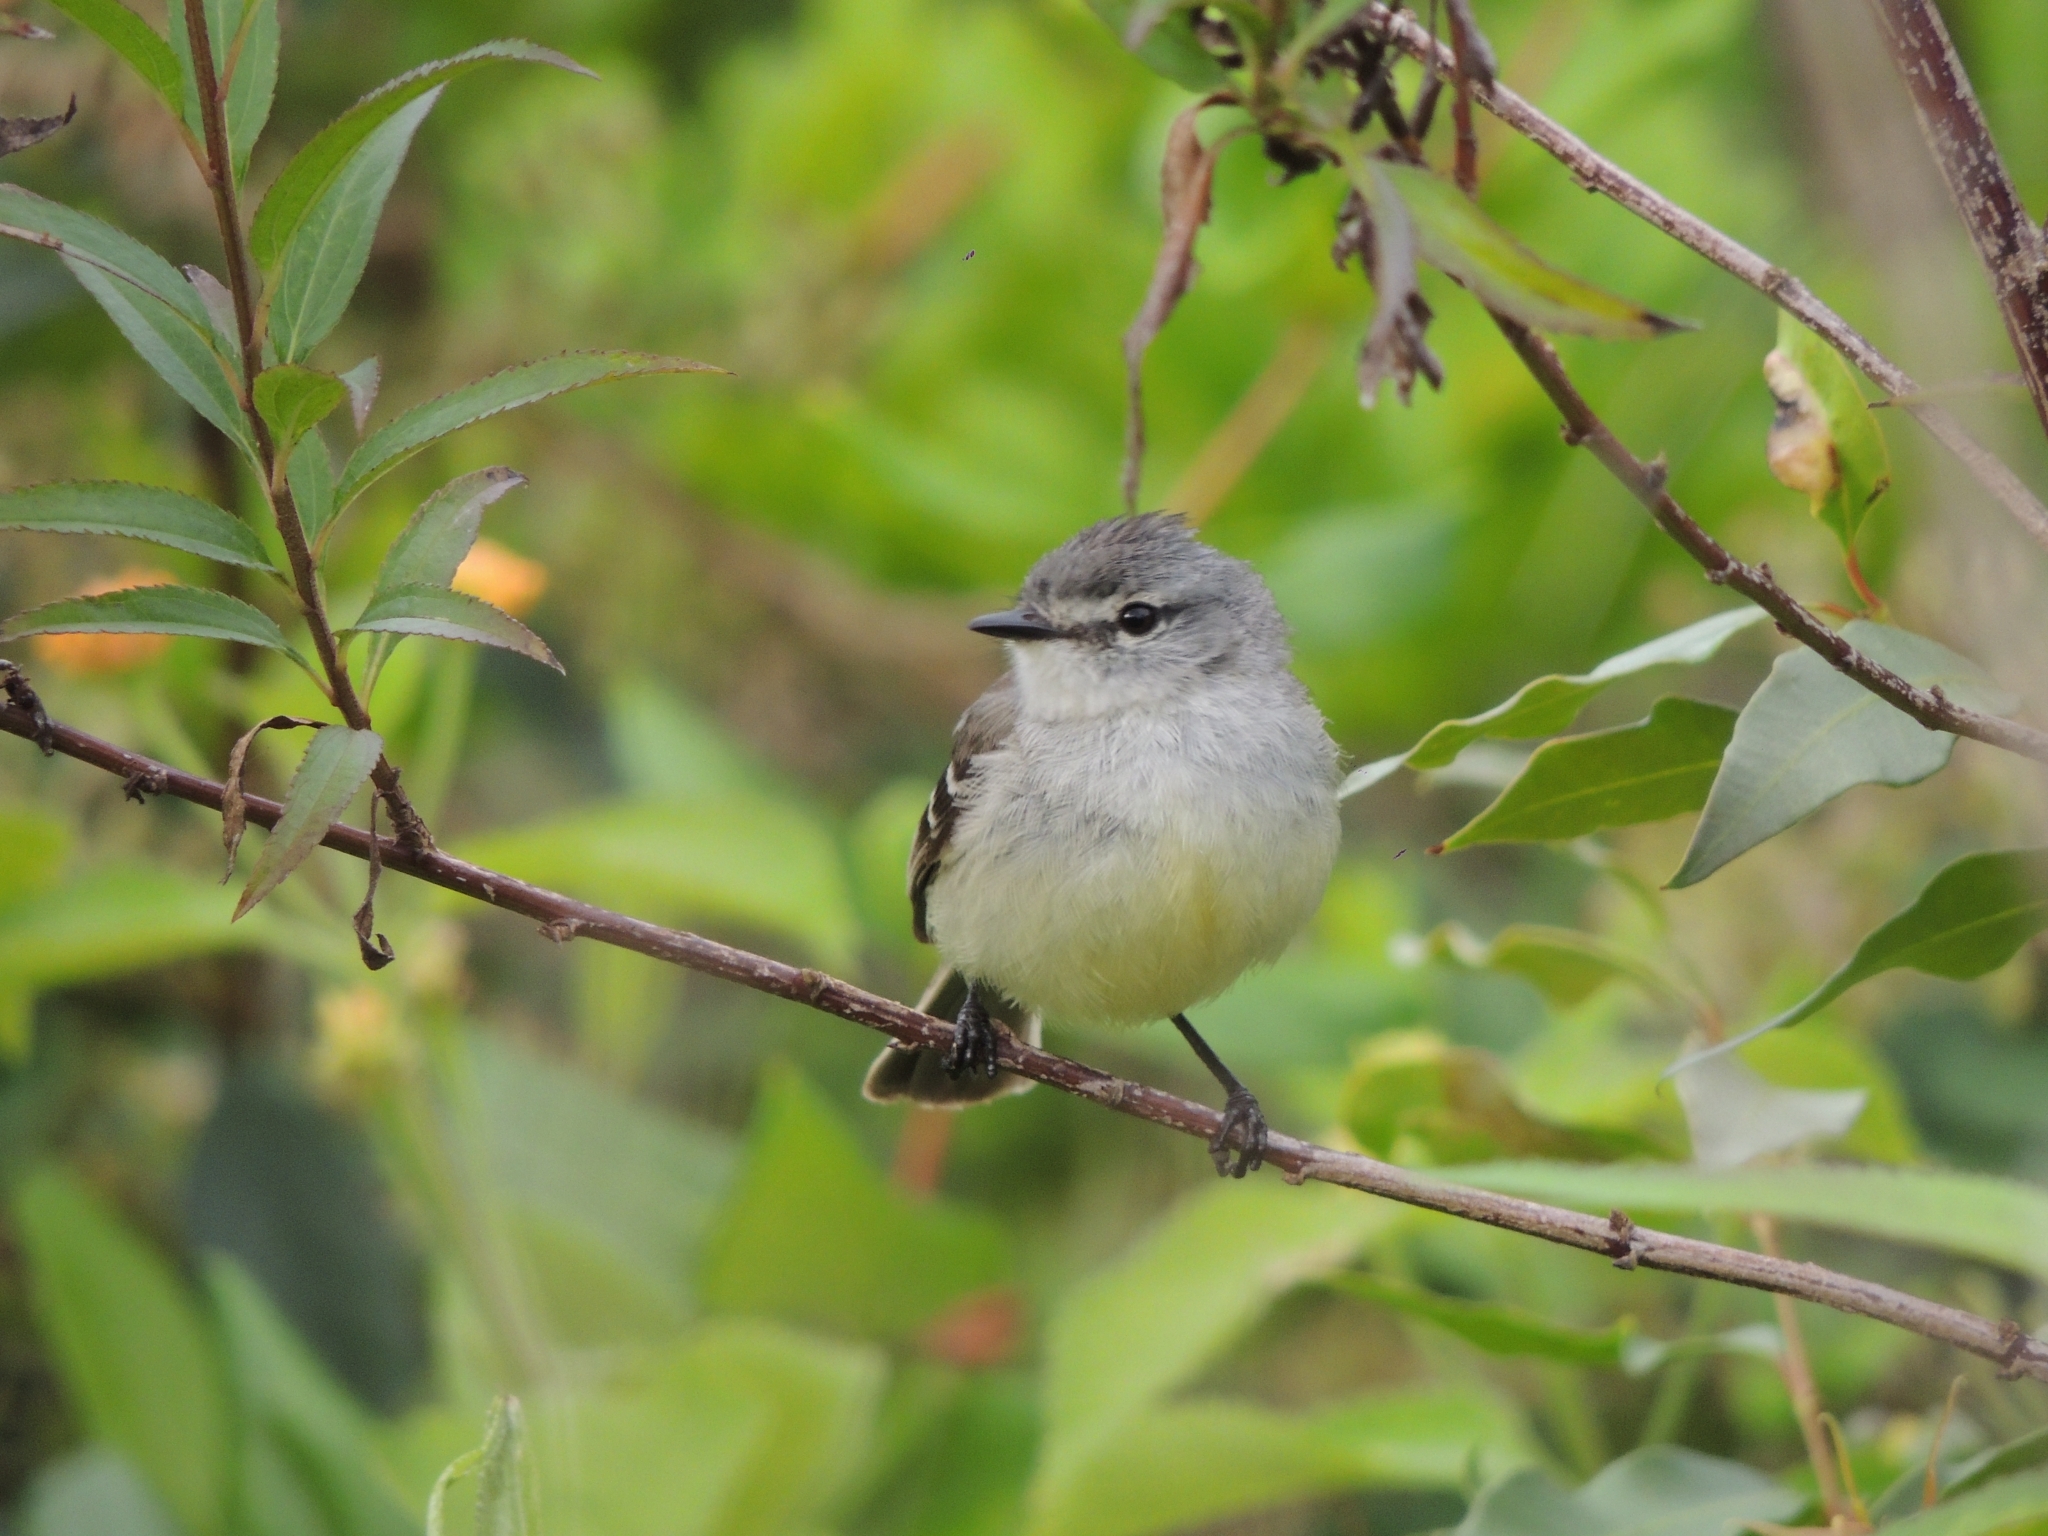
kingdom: Animalia
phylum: Chordata
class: Aves
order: Passeriformes
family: Tyrannidae
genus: Serpophaga
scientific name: Serpophaga subcristata
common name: White-crested tyrannulet
